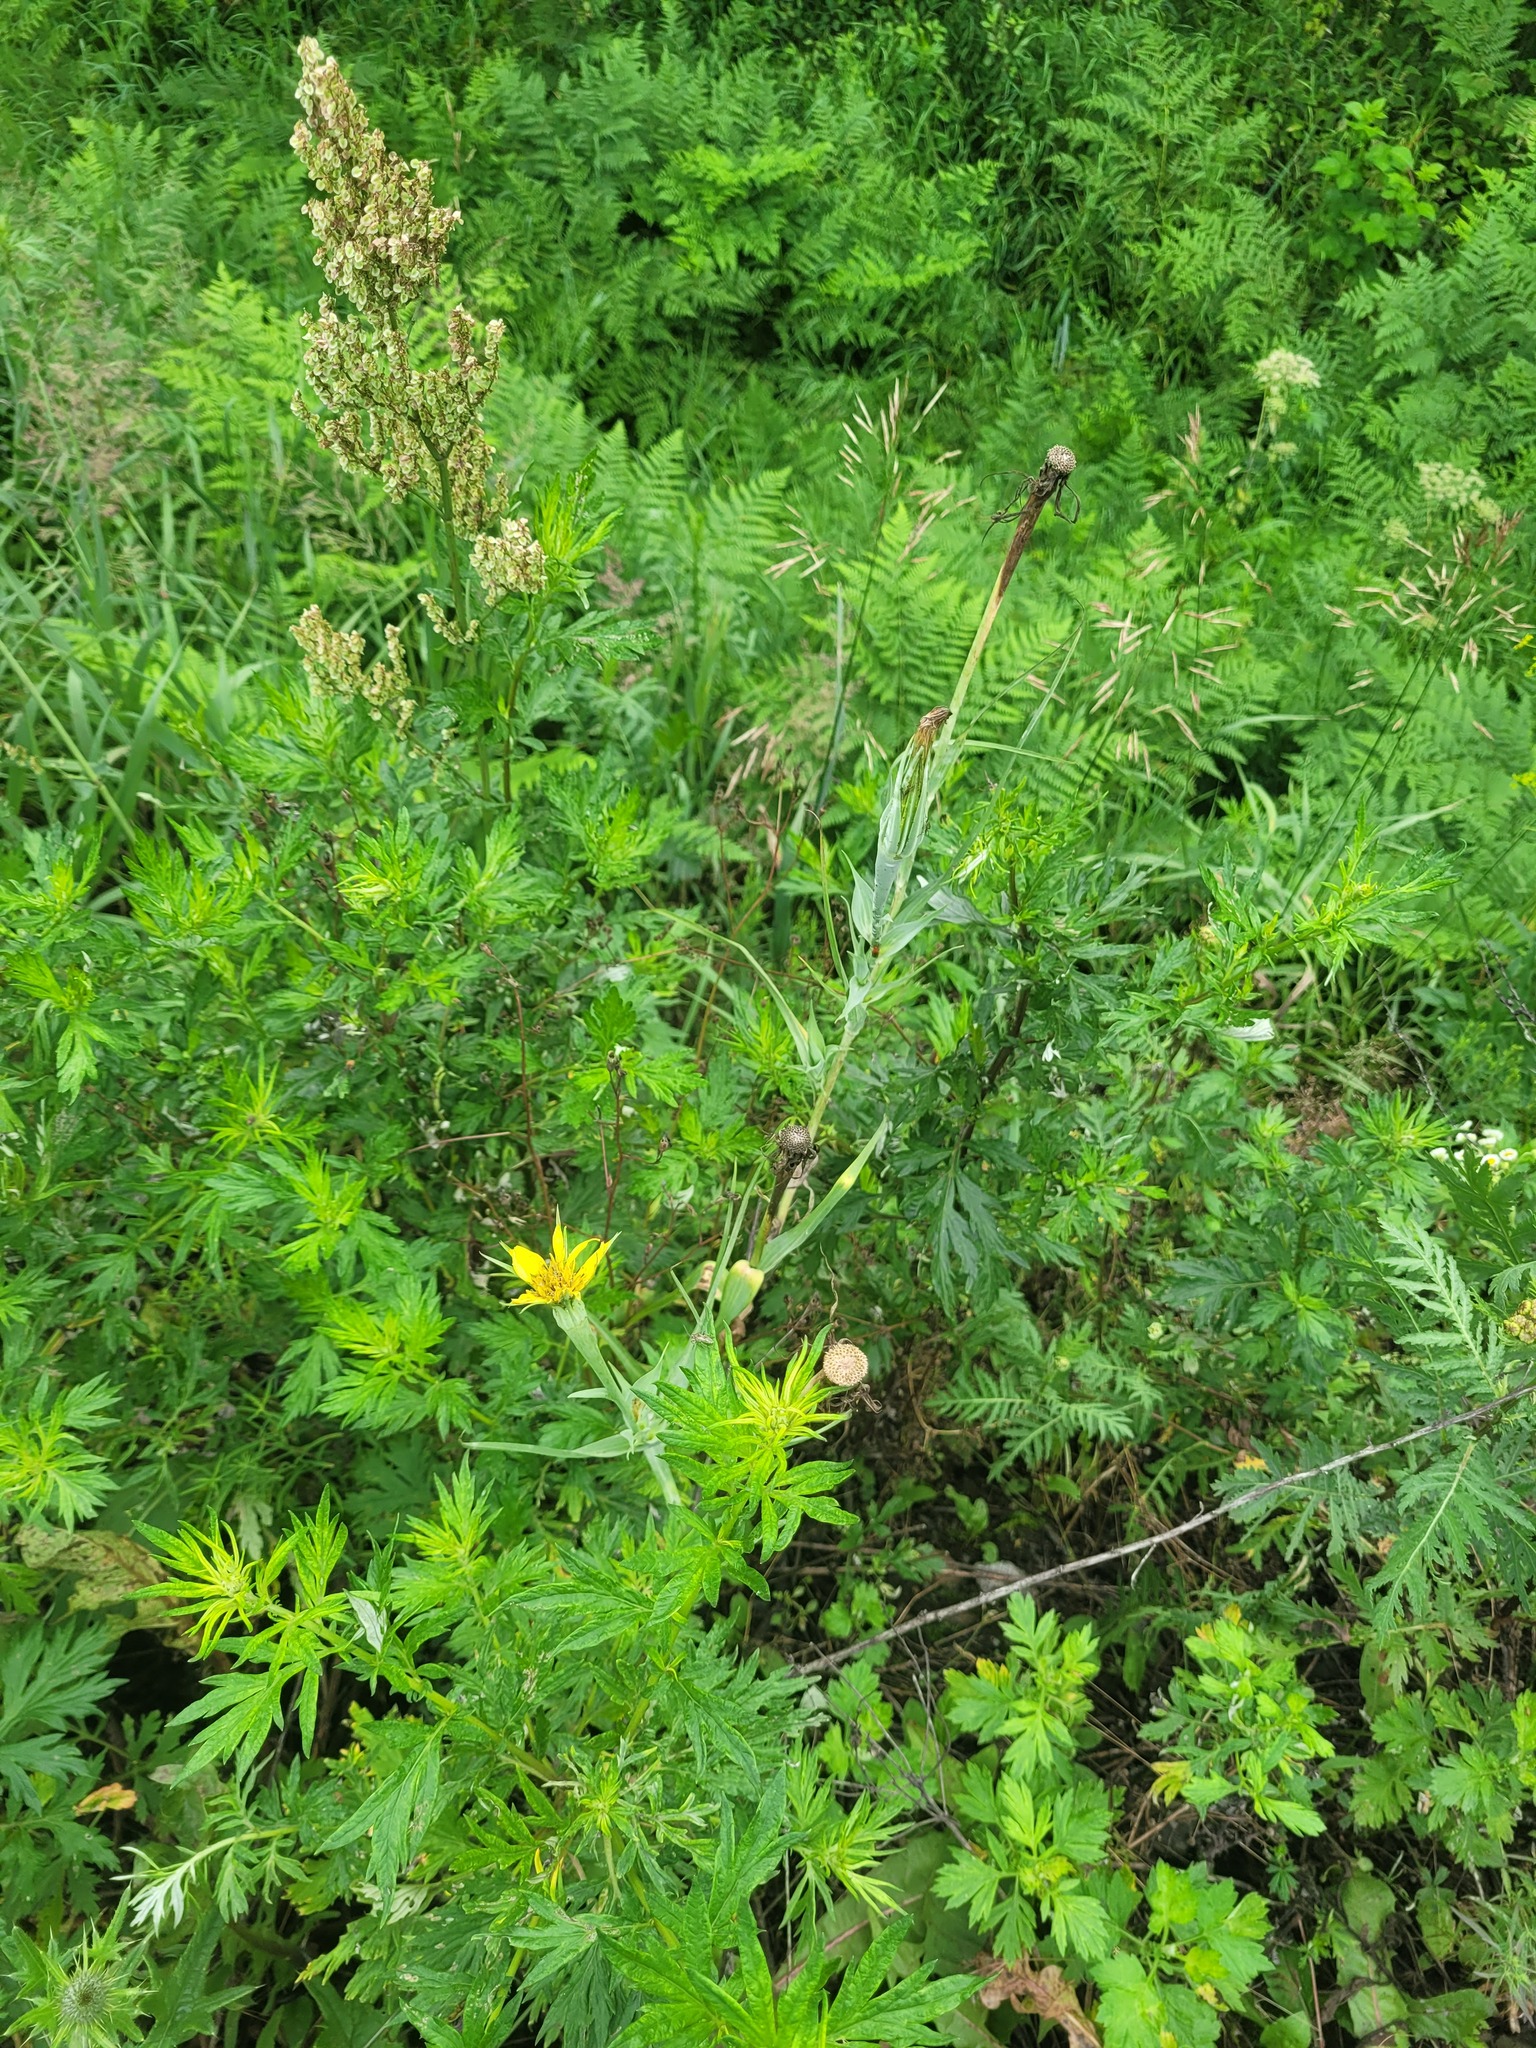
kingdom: Plantae
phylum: Tracheophyta
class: Magnoliopsida
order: Asterales
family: Asteraceae
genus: Tragopogon
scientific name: Tragopogon dubius
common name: Yellow salsify
